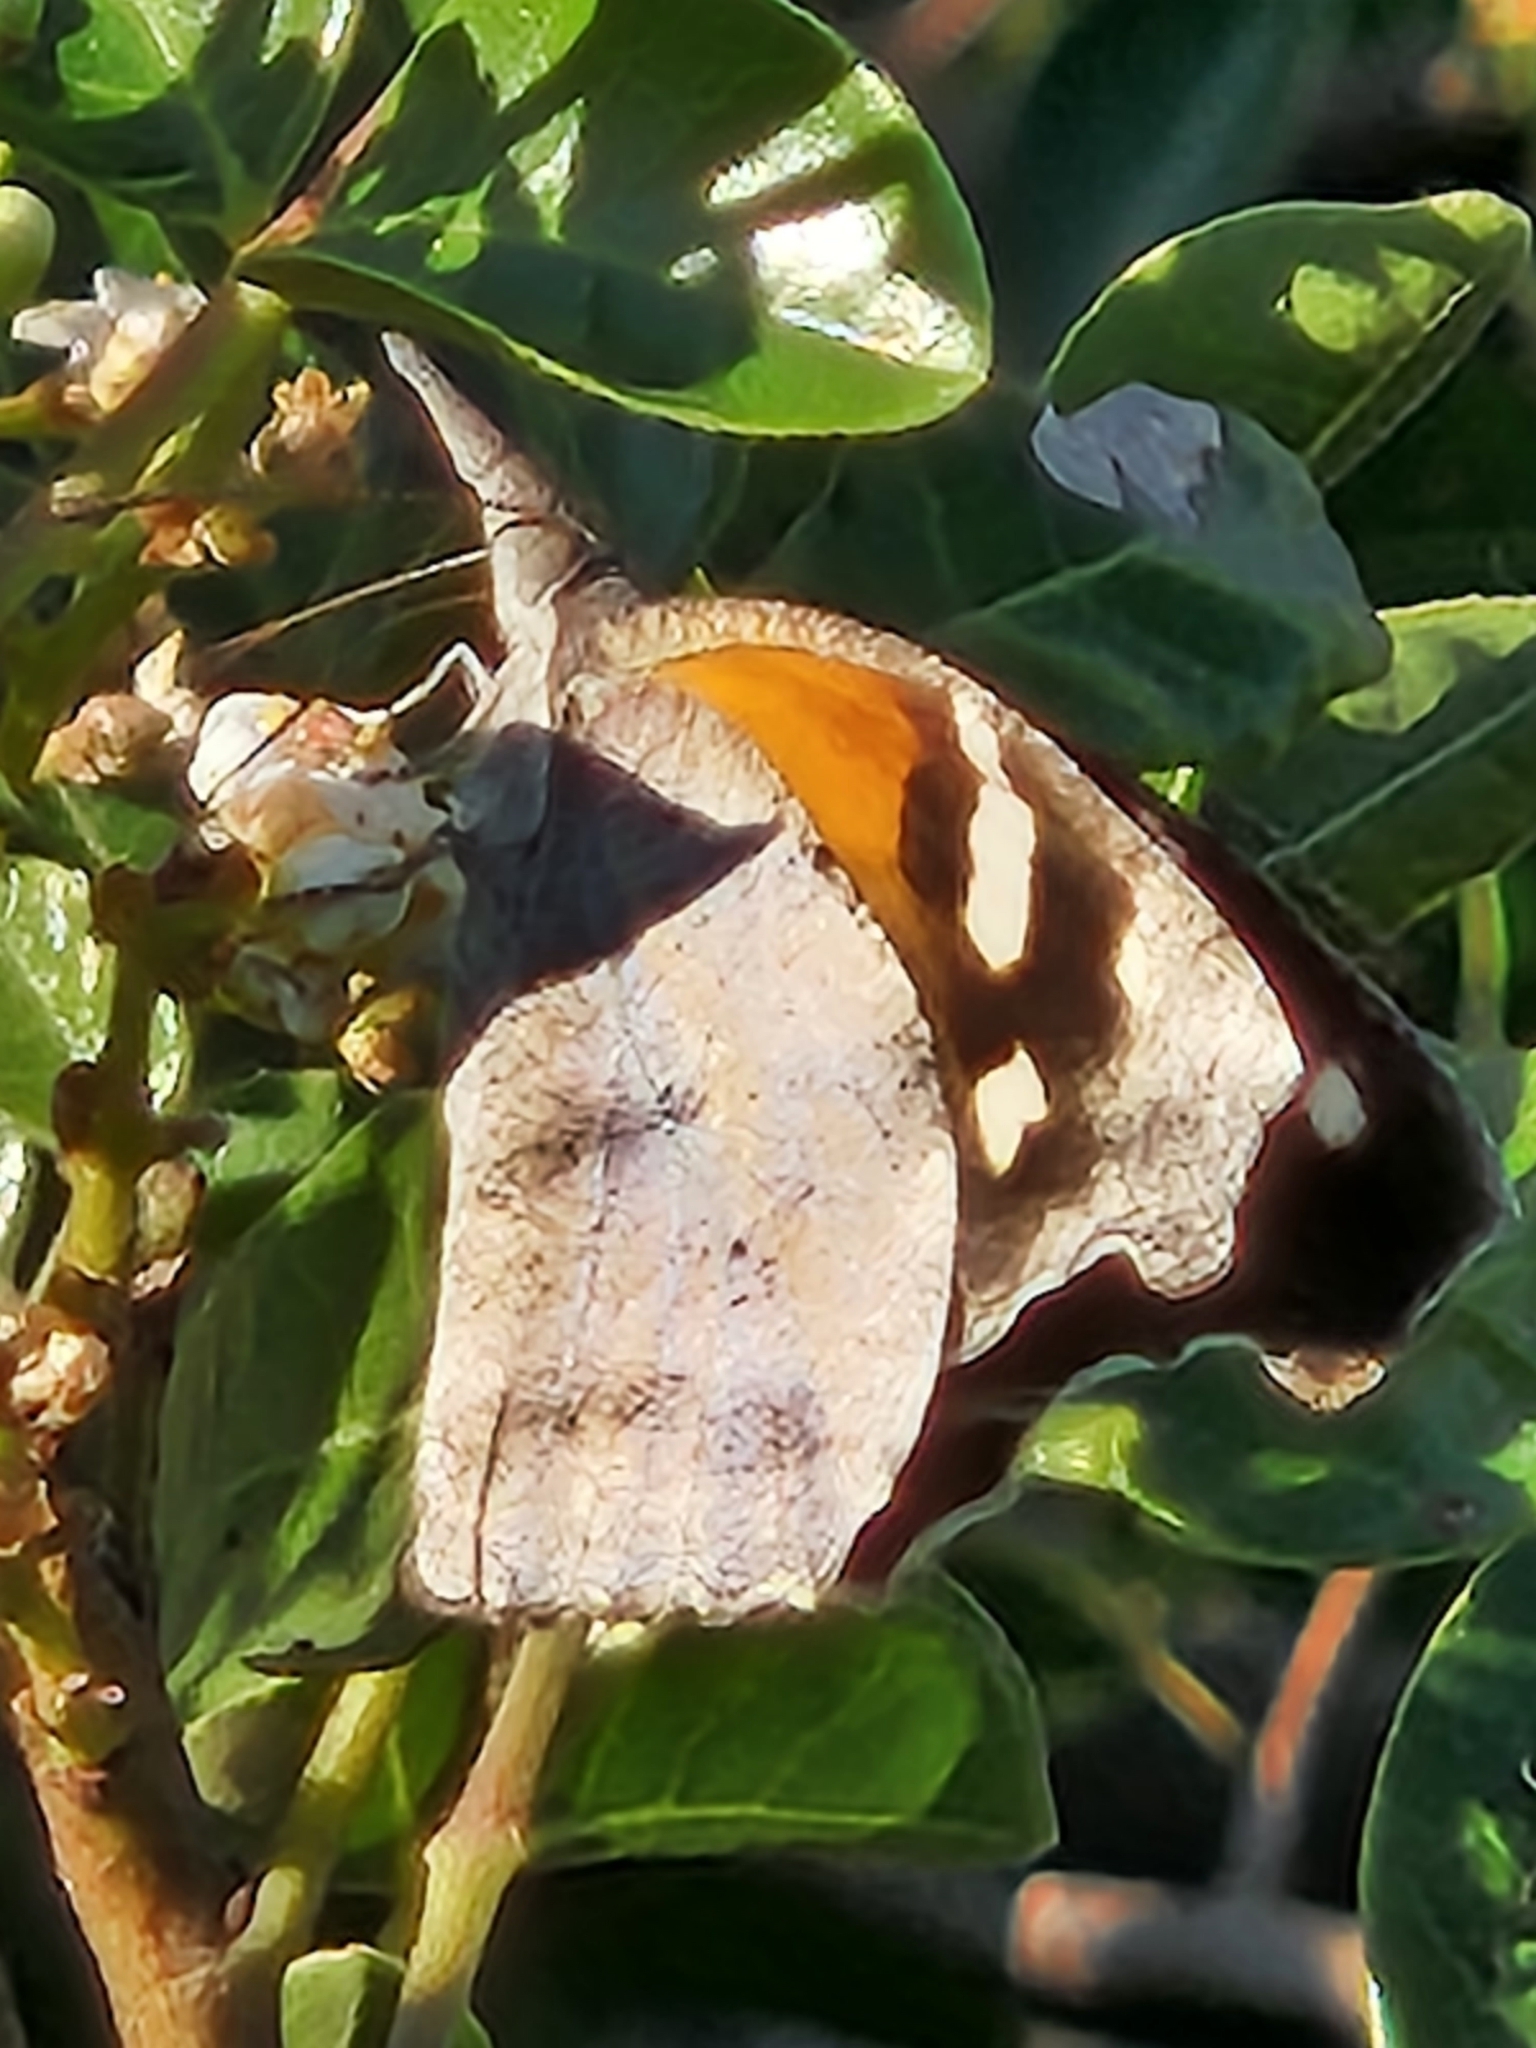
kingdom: Animalia
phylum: Arthropoda
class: Insecta
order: Lepidoptera
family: Nymphalidae
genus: Libytheana
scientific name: Libytheana carinenta
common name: American snout
